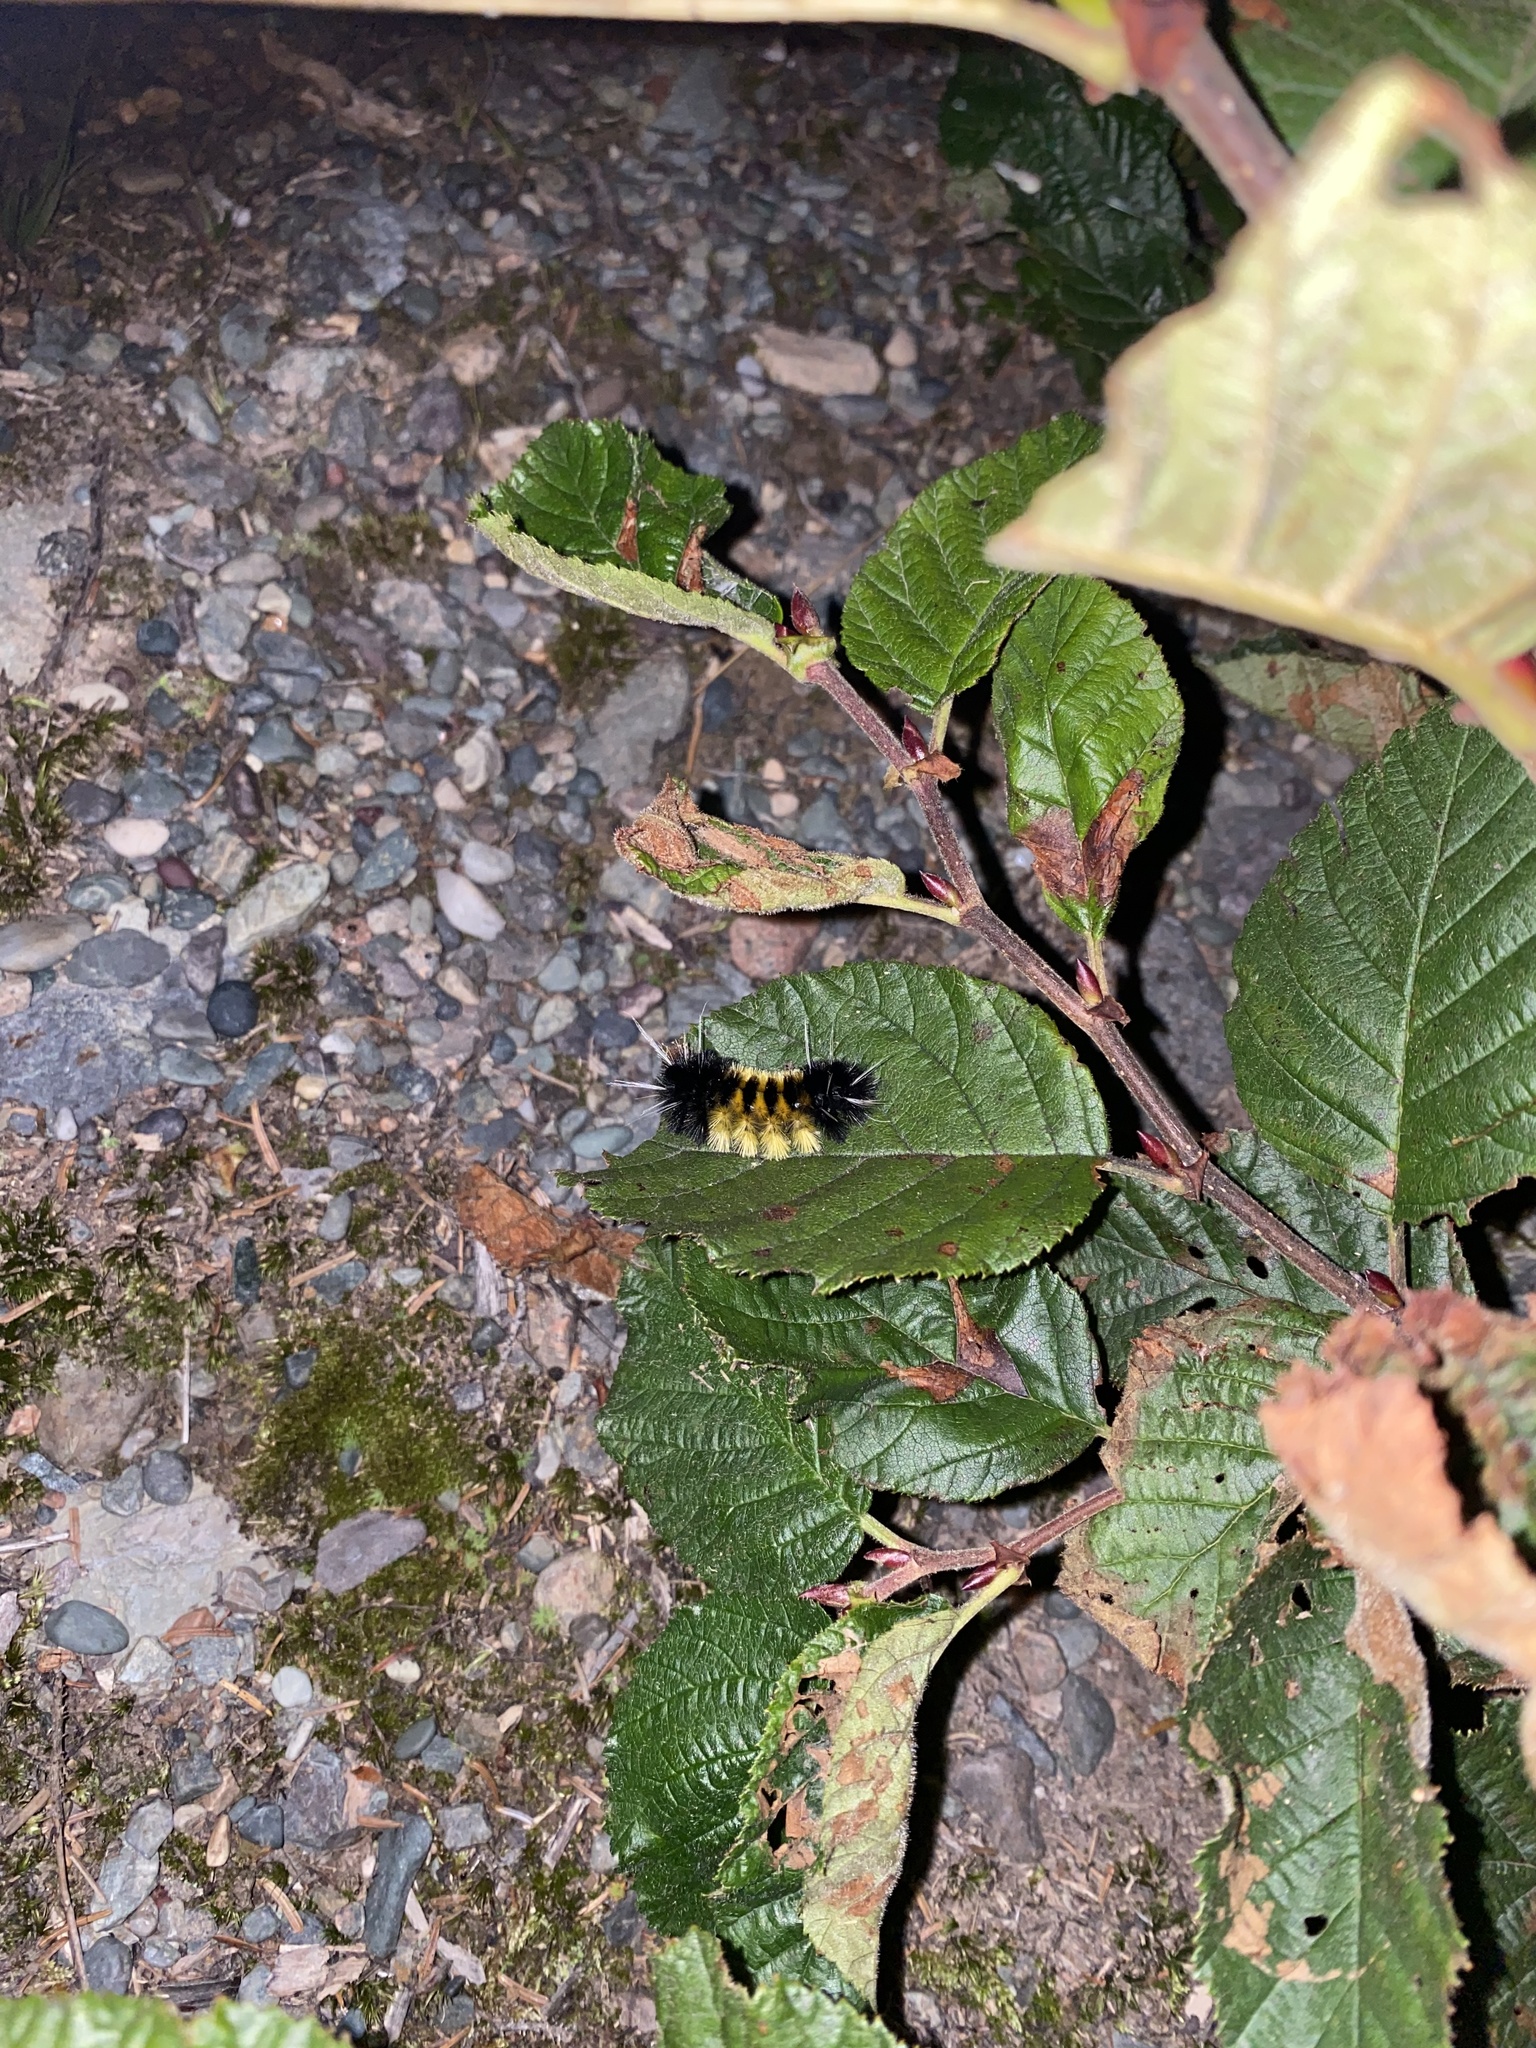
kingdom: Animalia
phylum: Arthropoda
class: Insecta
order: Lepidoptera
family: Erebidae
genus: Lophocampa
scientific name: Lophocampa maculata
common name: Spotted tussock moth
